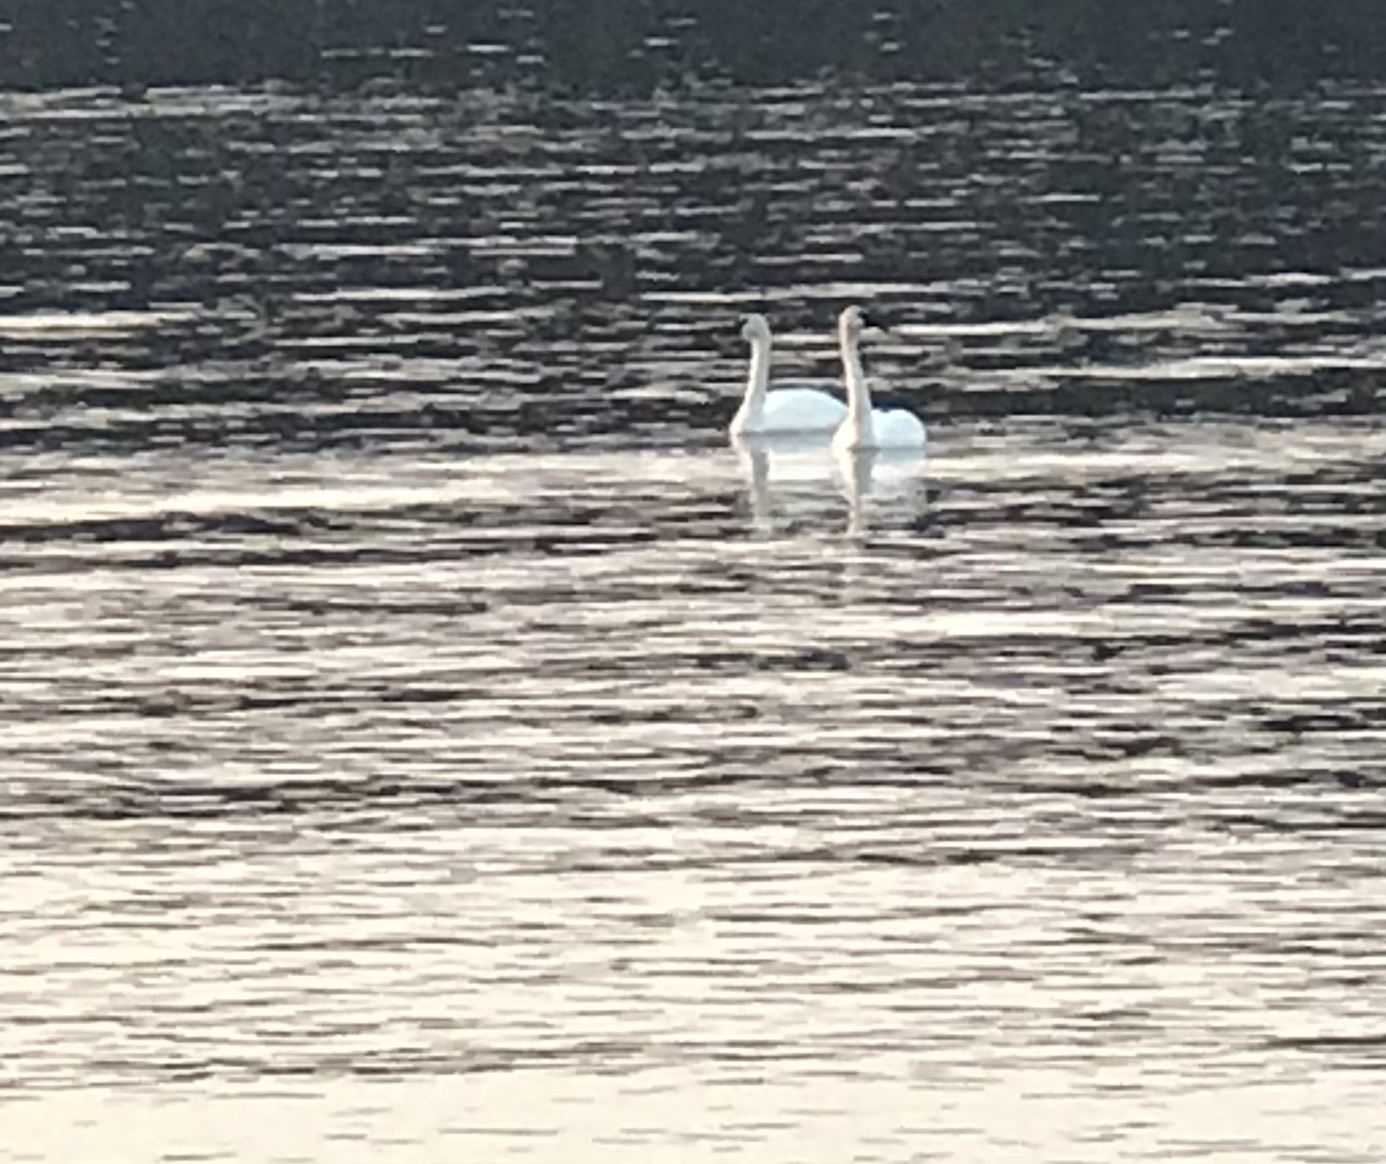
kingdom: Animalia
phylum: Chordata
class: Aves
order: Anseriformes
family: Anatidae
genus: Cygnus
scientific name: Cygnus buccinator
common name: Trumpeter swan
